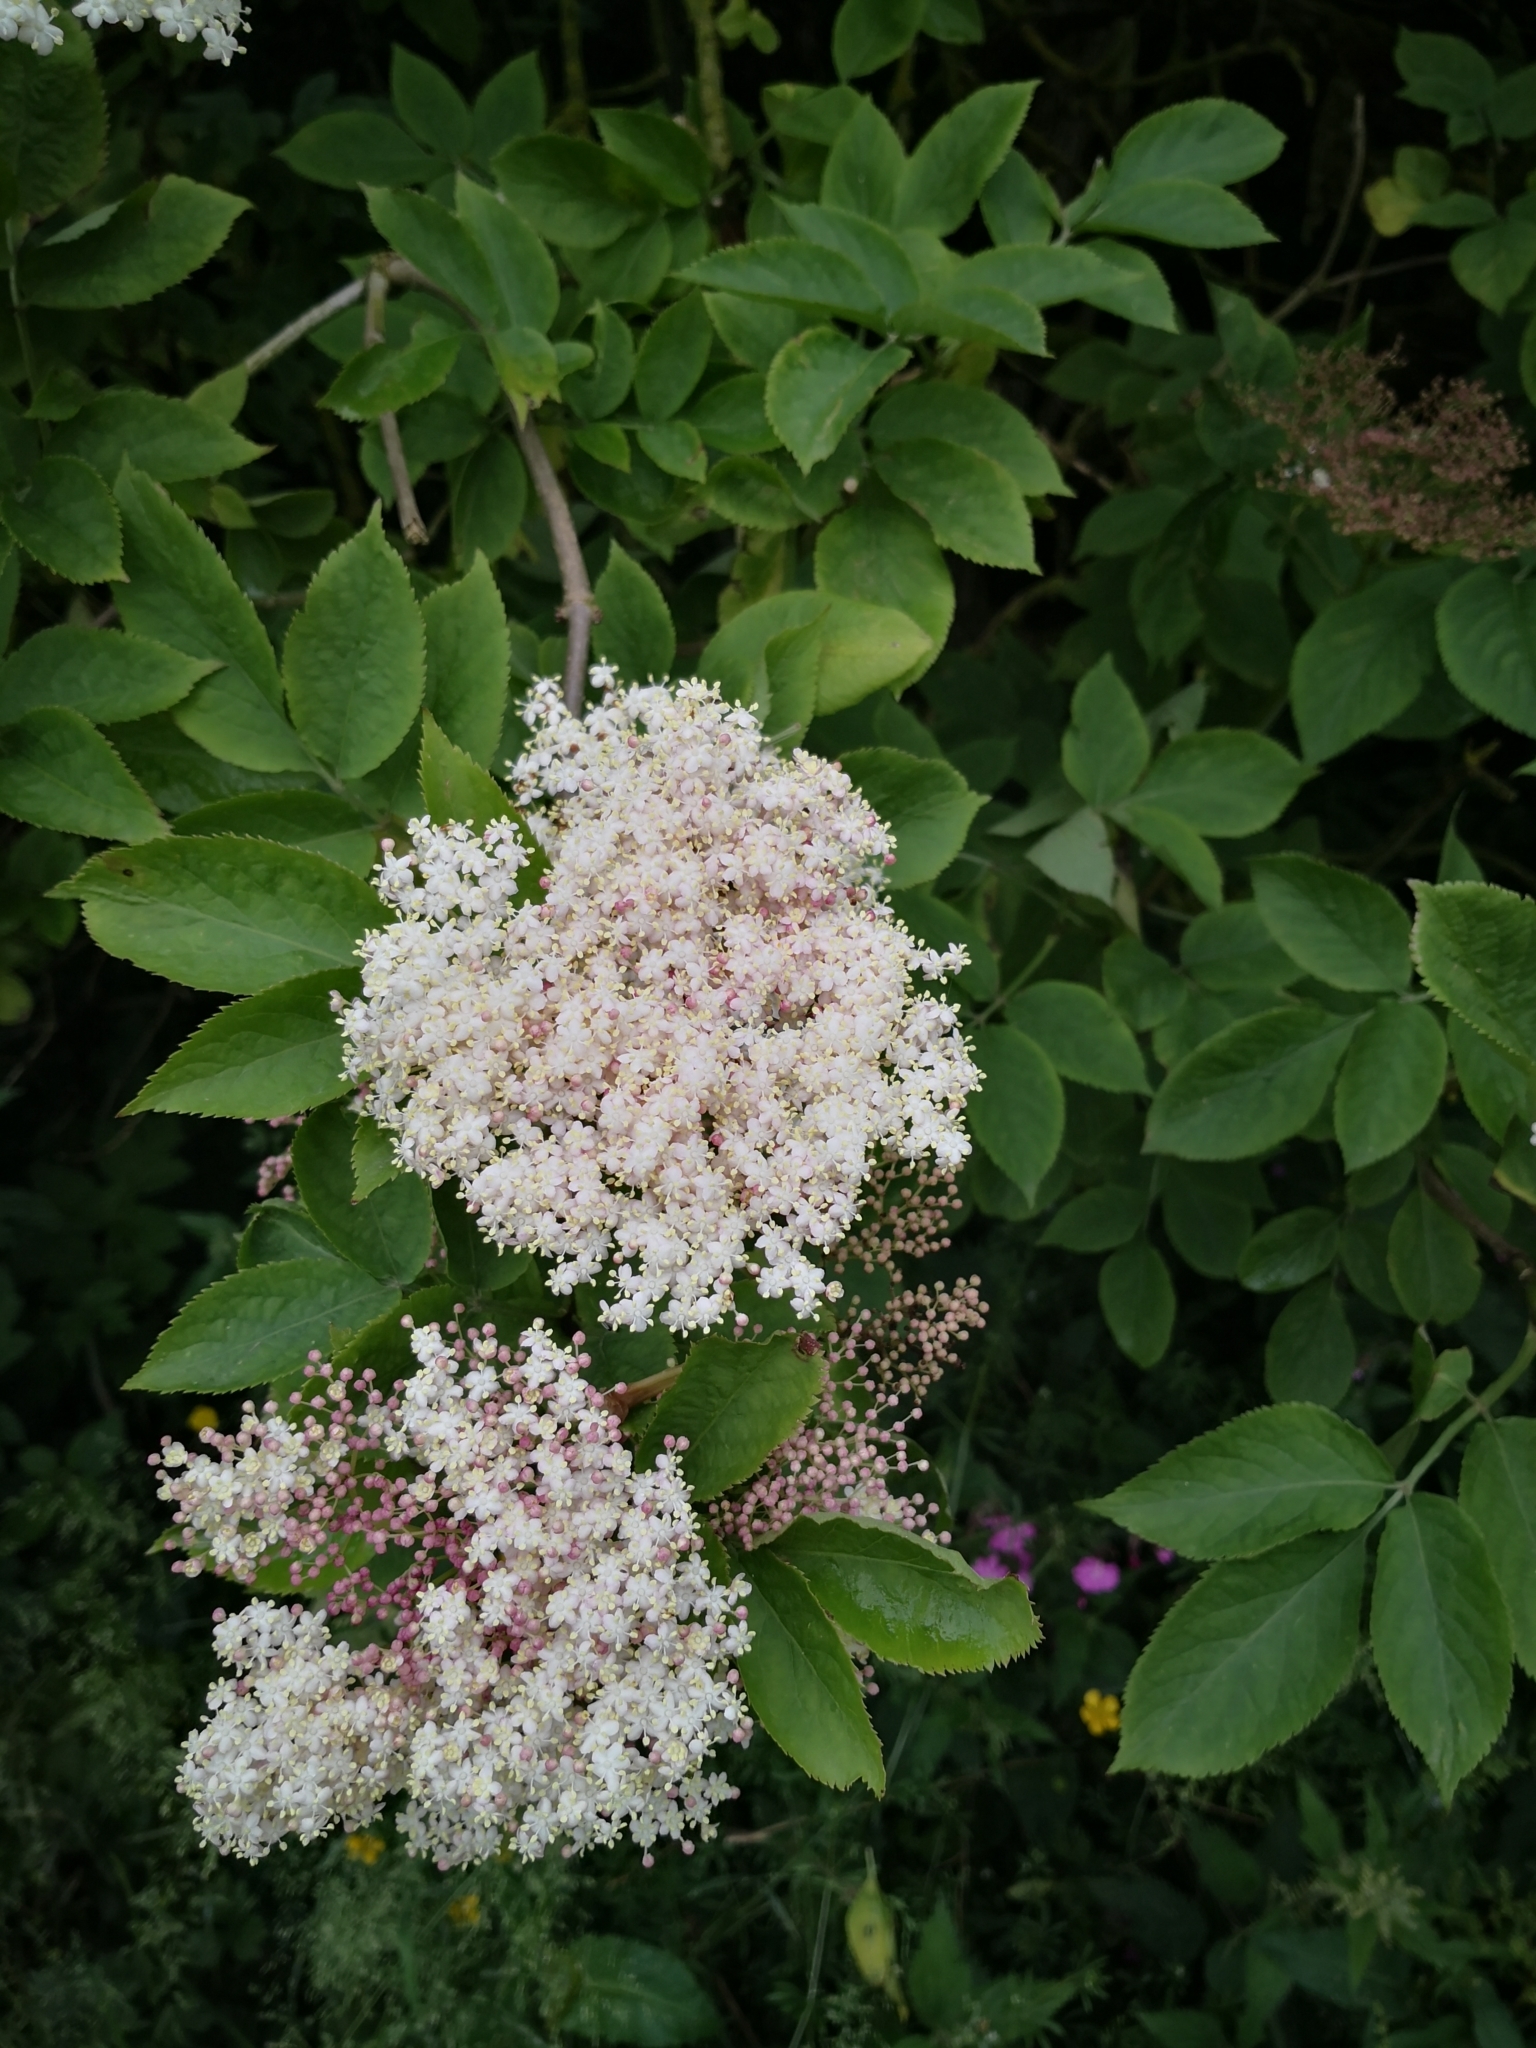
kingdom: Plantae
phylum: Tracheophyta
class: Magnoliopsida
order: Dipsacales
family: Viburnaceae
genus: Sambucus
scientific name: Sambucus nigra
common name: Elder
